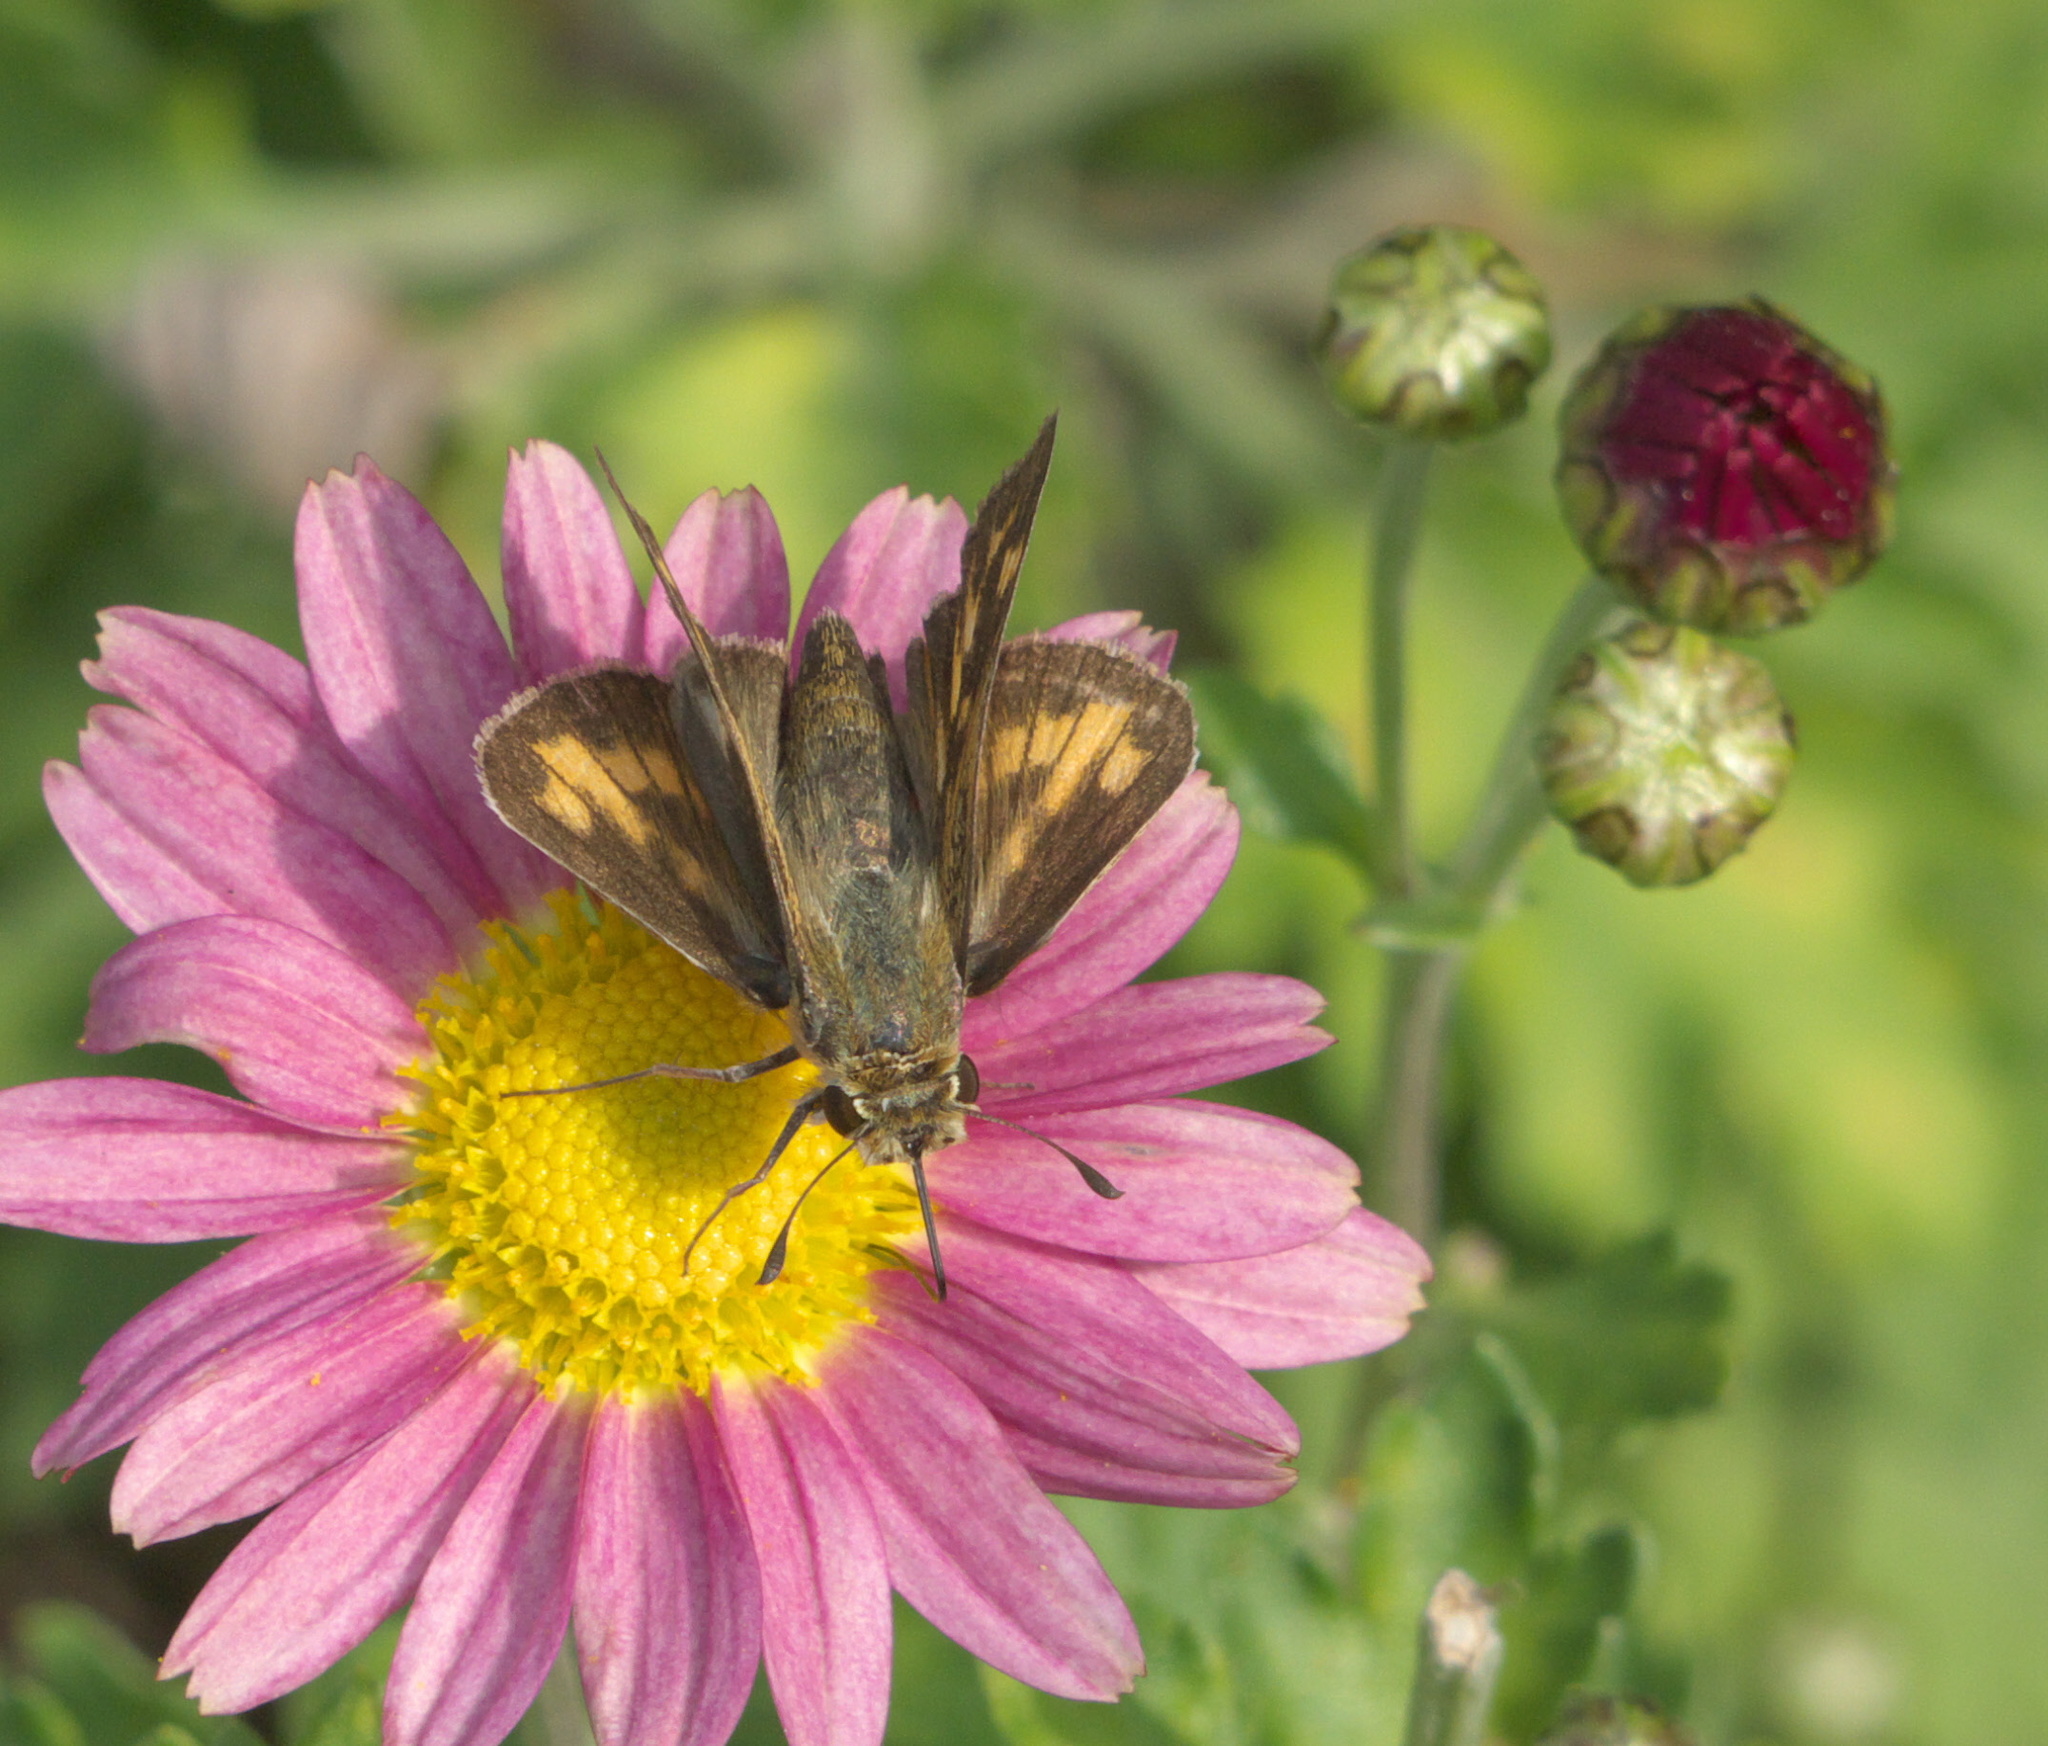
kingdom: Animalia
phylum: Arthropoda
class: Insecta
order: Lepidoptera
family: Hesperiidae
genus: Hylephila
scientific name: Hylephila phyleus
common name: Fiery skipper
